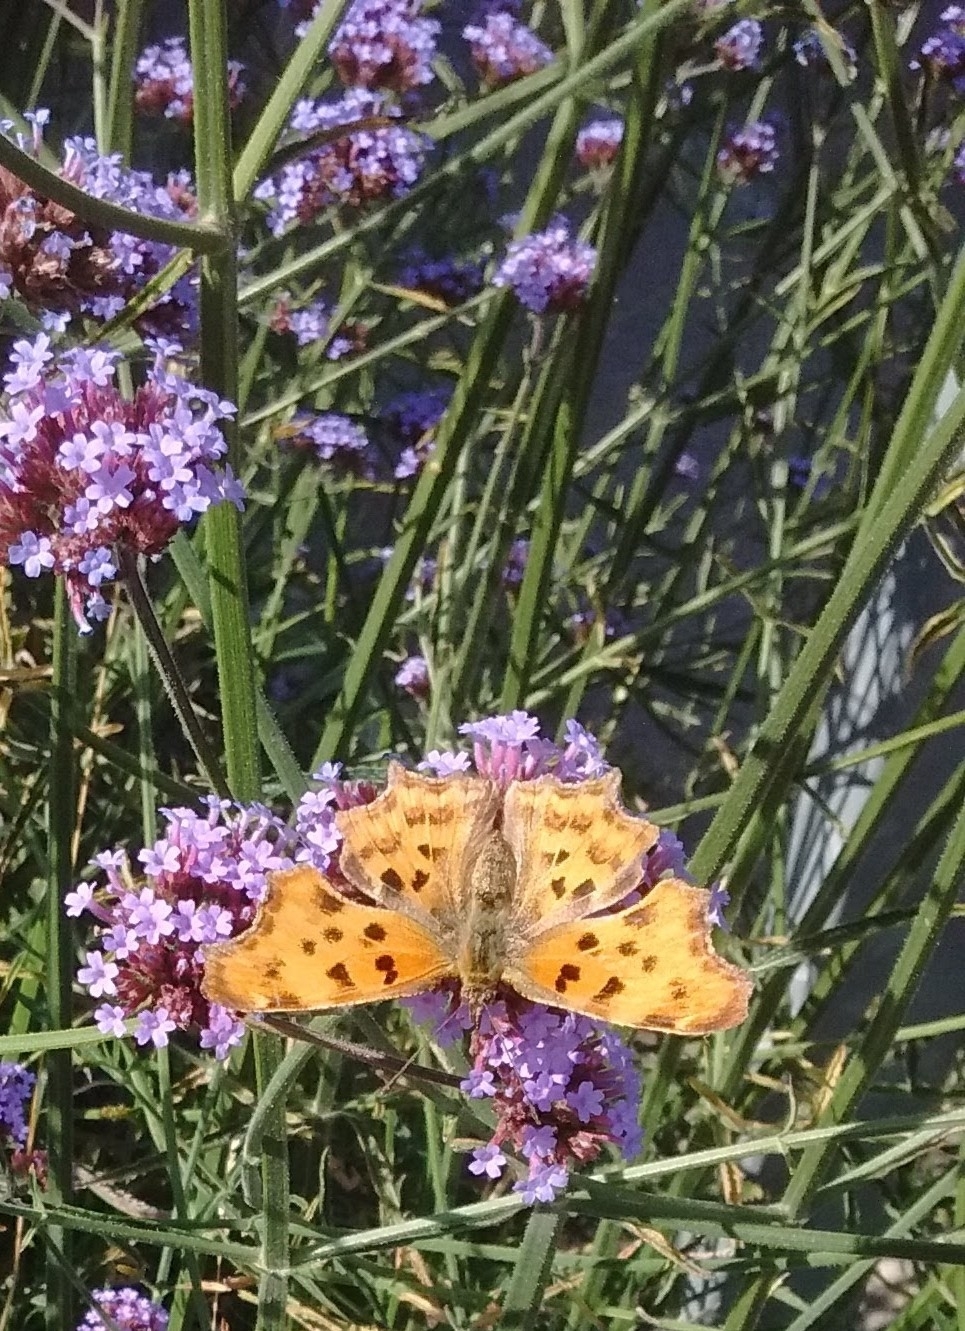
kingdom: Animalia
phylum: Arthropoda
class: Insecta
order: Lepidoptera
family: Nymphalidae
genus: Polygonia
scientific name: Polygonia c-album
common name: Comma
